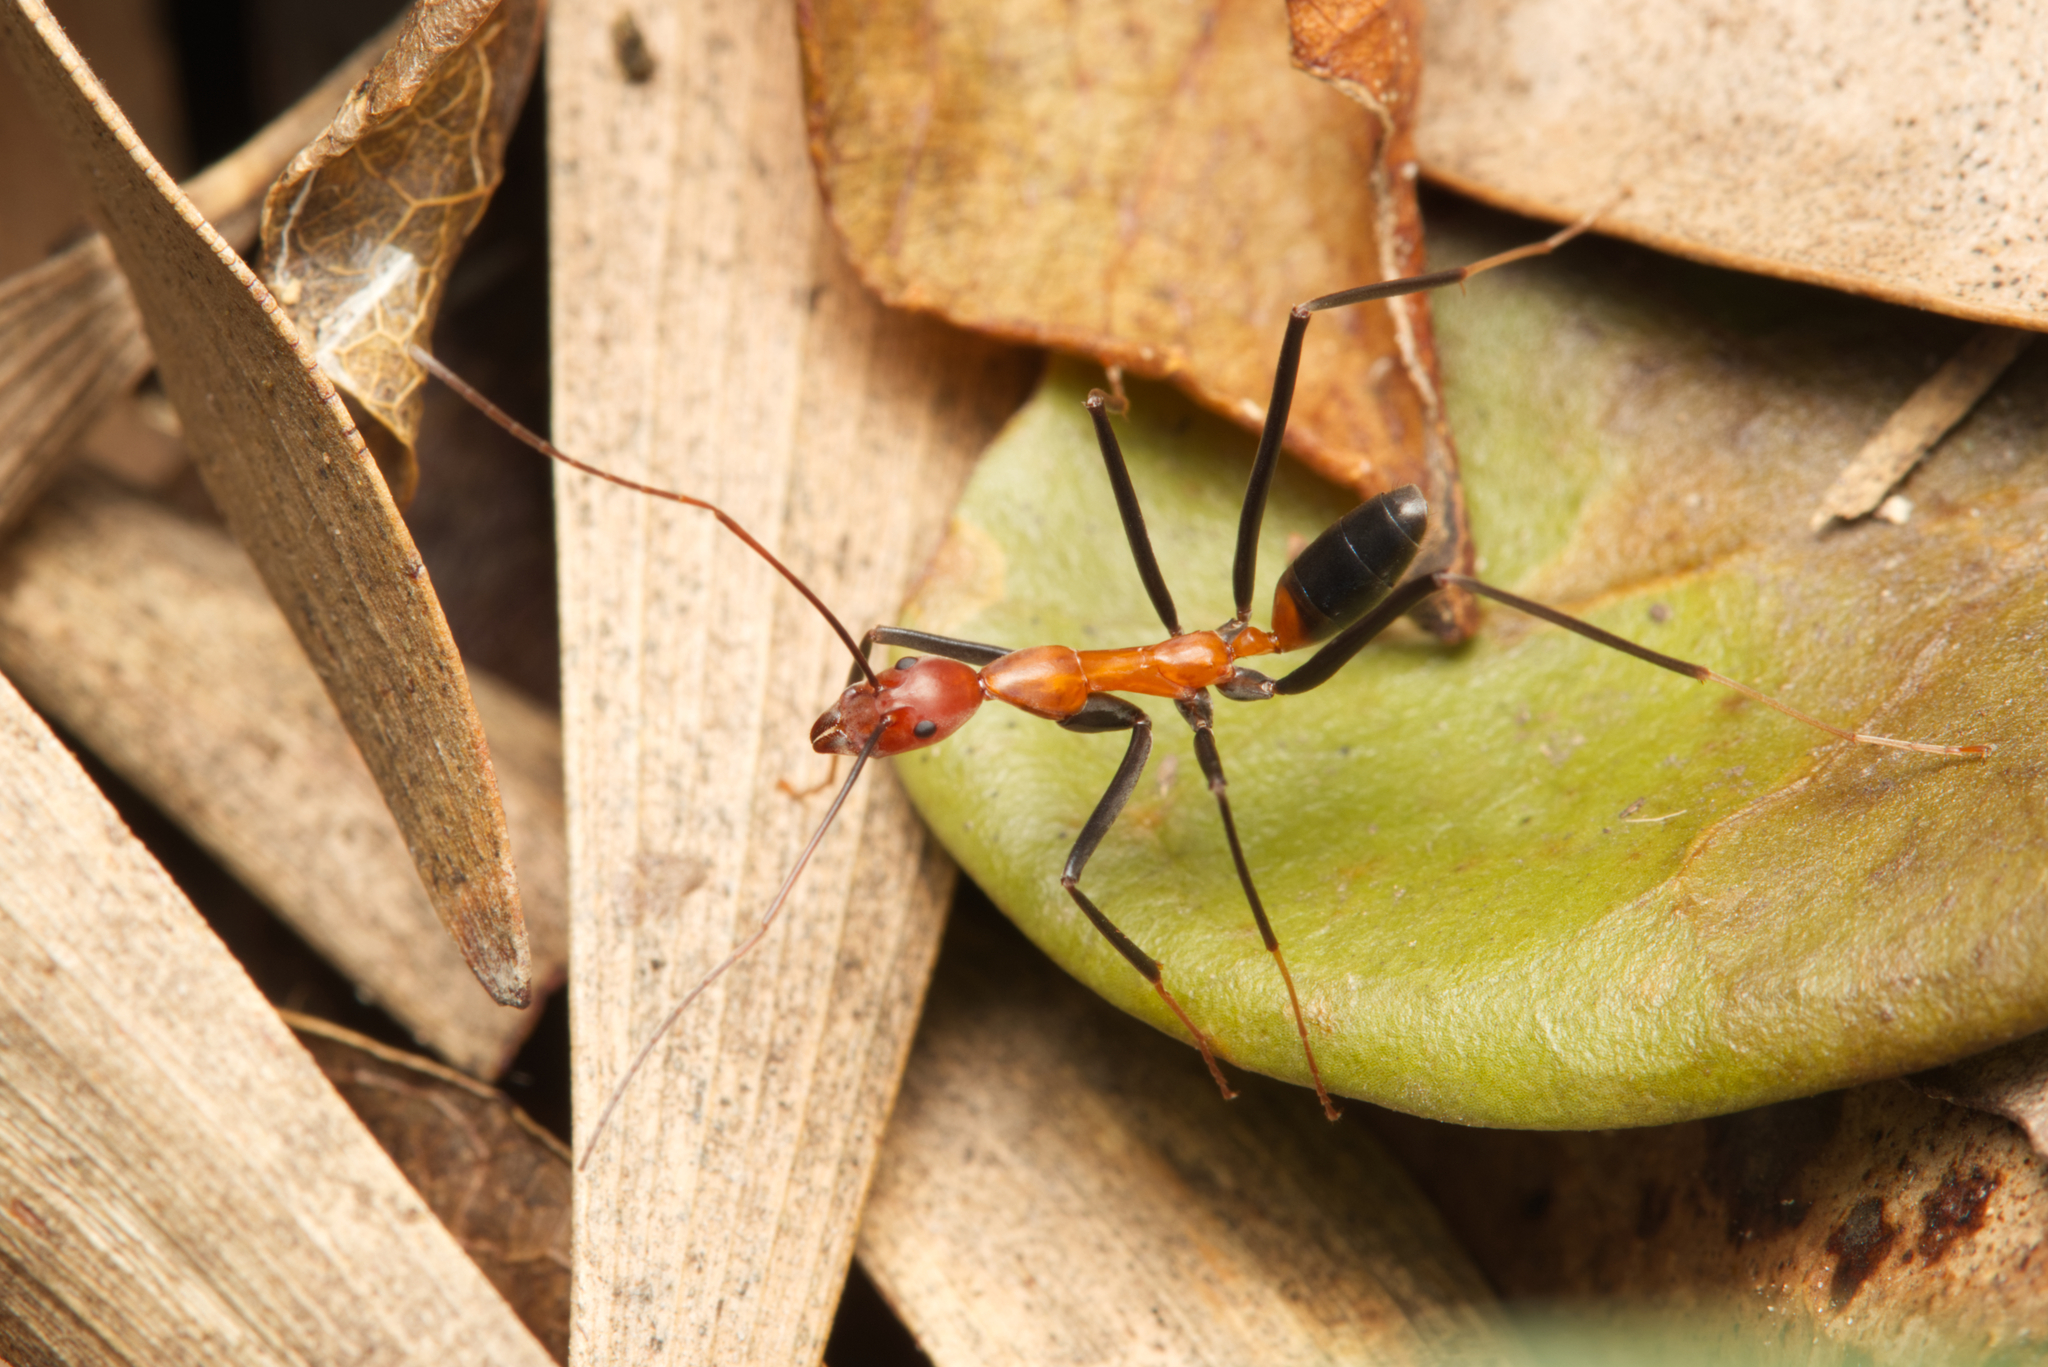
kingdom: Animalia
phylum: Arthropoda
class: Insecta
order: Hymenoptera
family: Formicidae
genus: Leptomyrmex
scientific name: Leptomyrmex rufithorax
